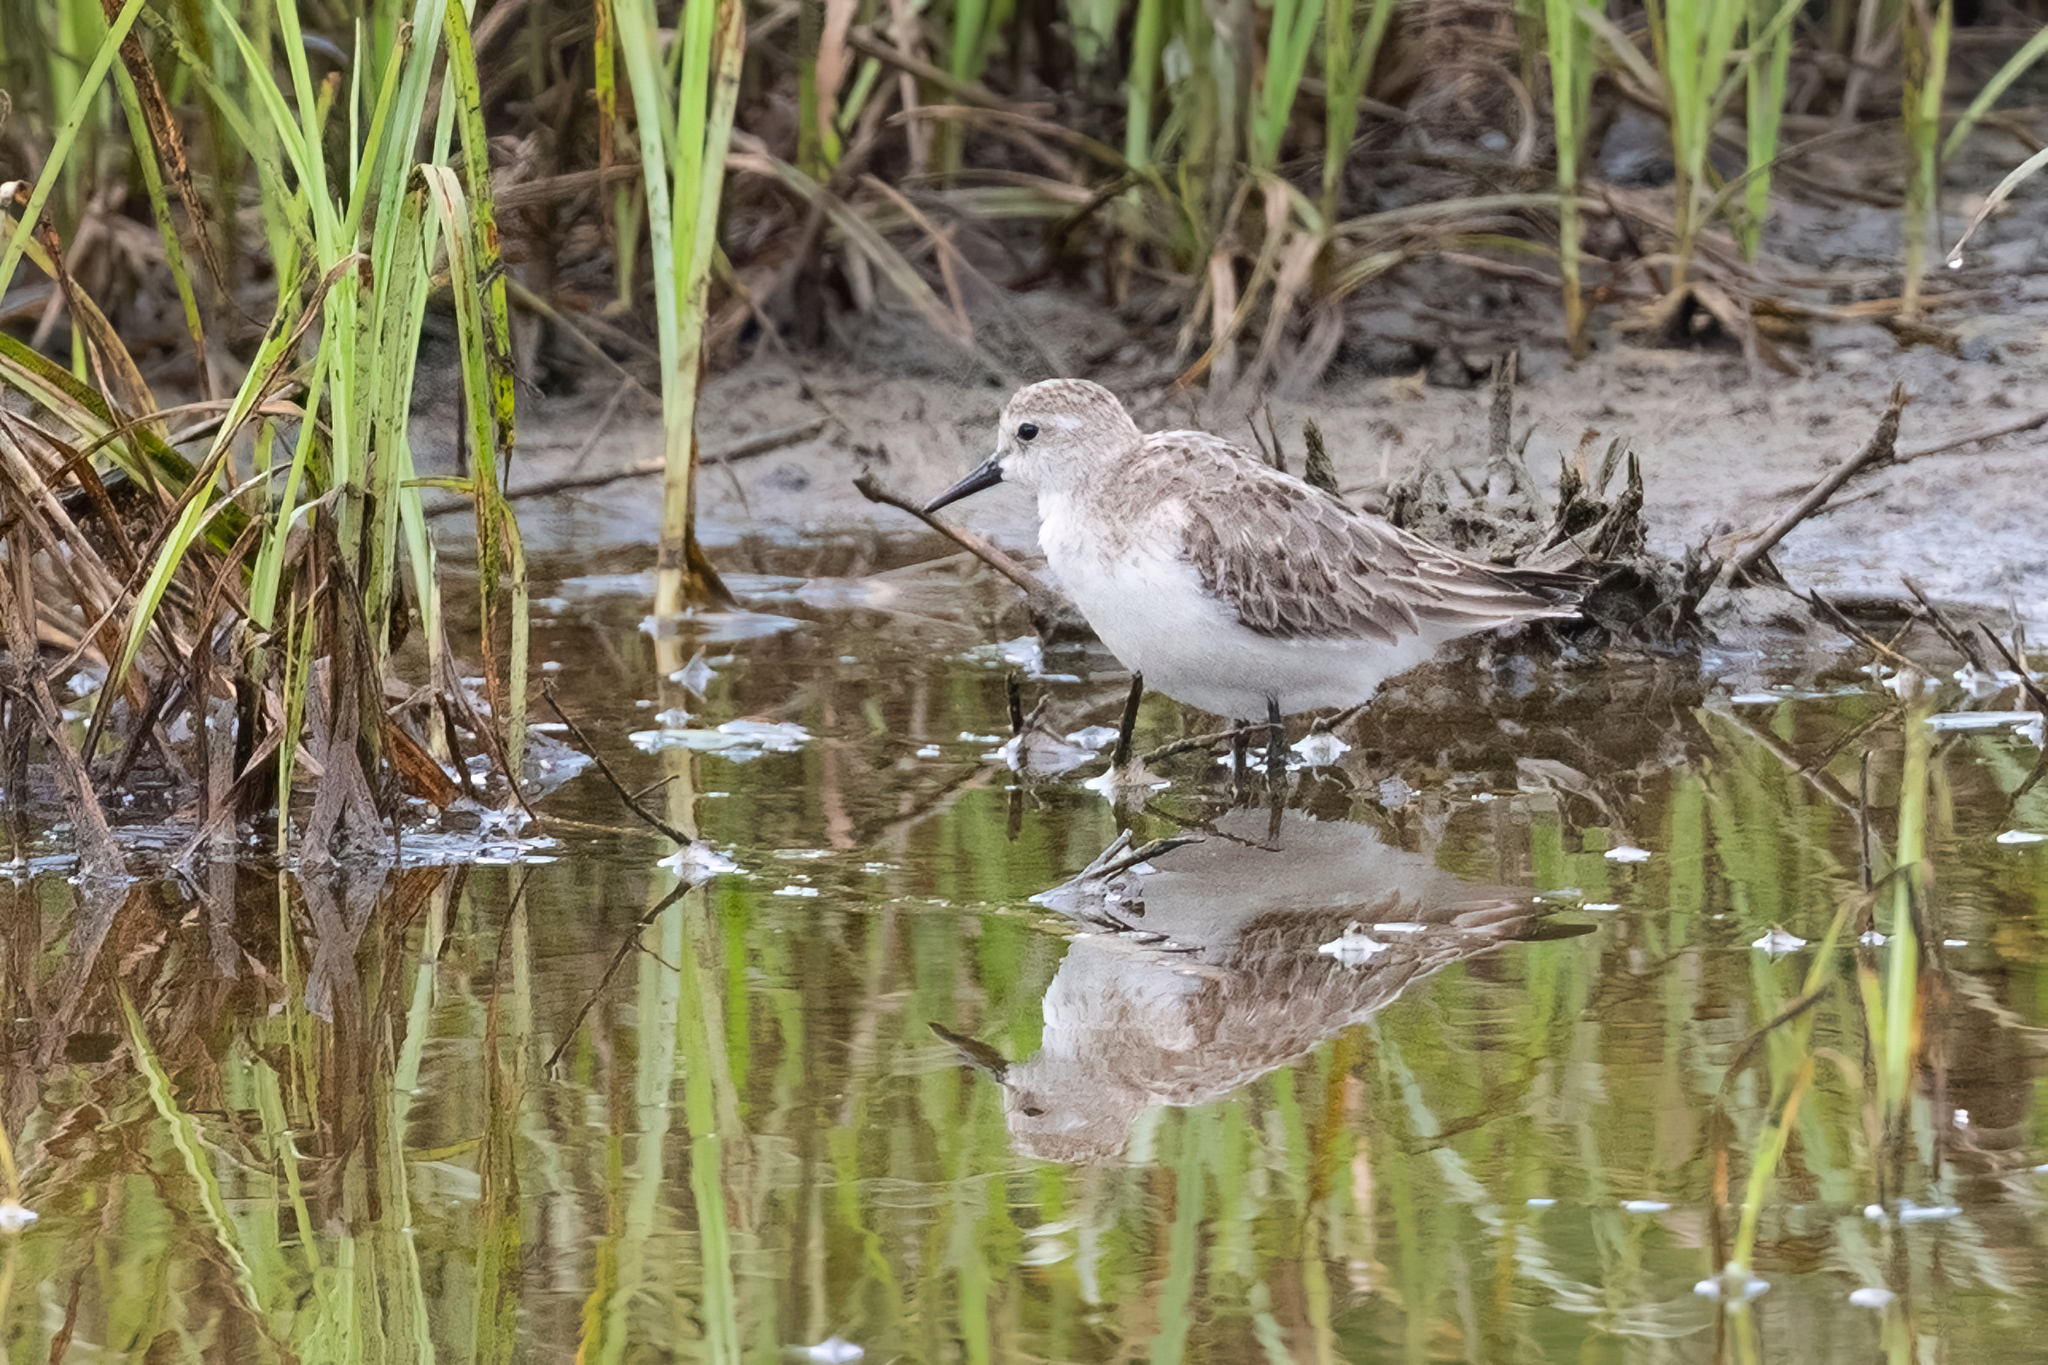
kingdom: Animalia
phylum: Chordata
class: Aves
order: Charadriiformes
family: Scolopacidae
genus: Calidris
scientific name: Calidris pusilla
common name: Semipalmated sandpiper
